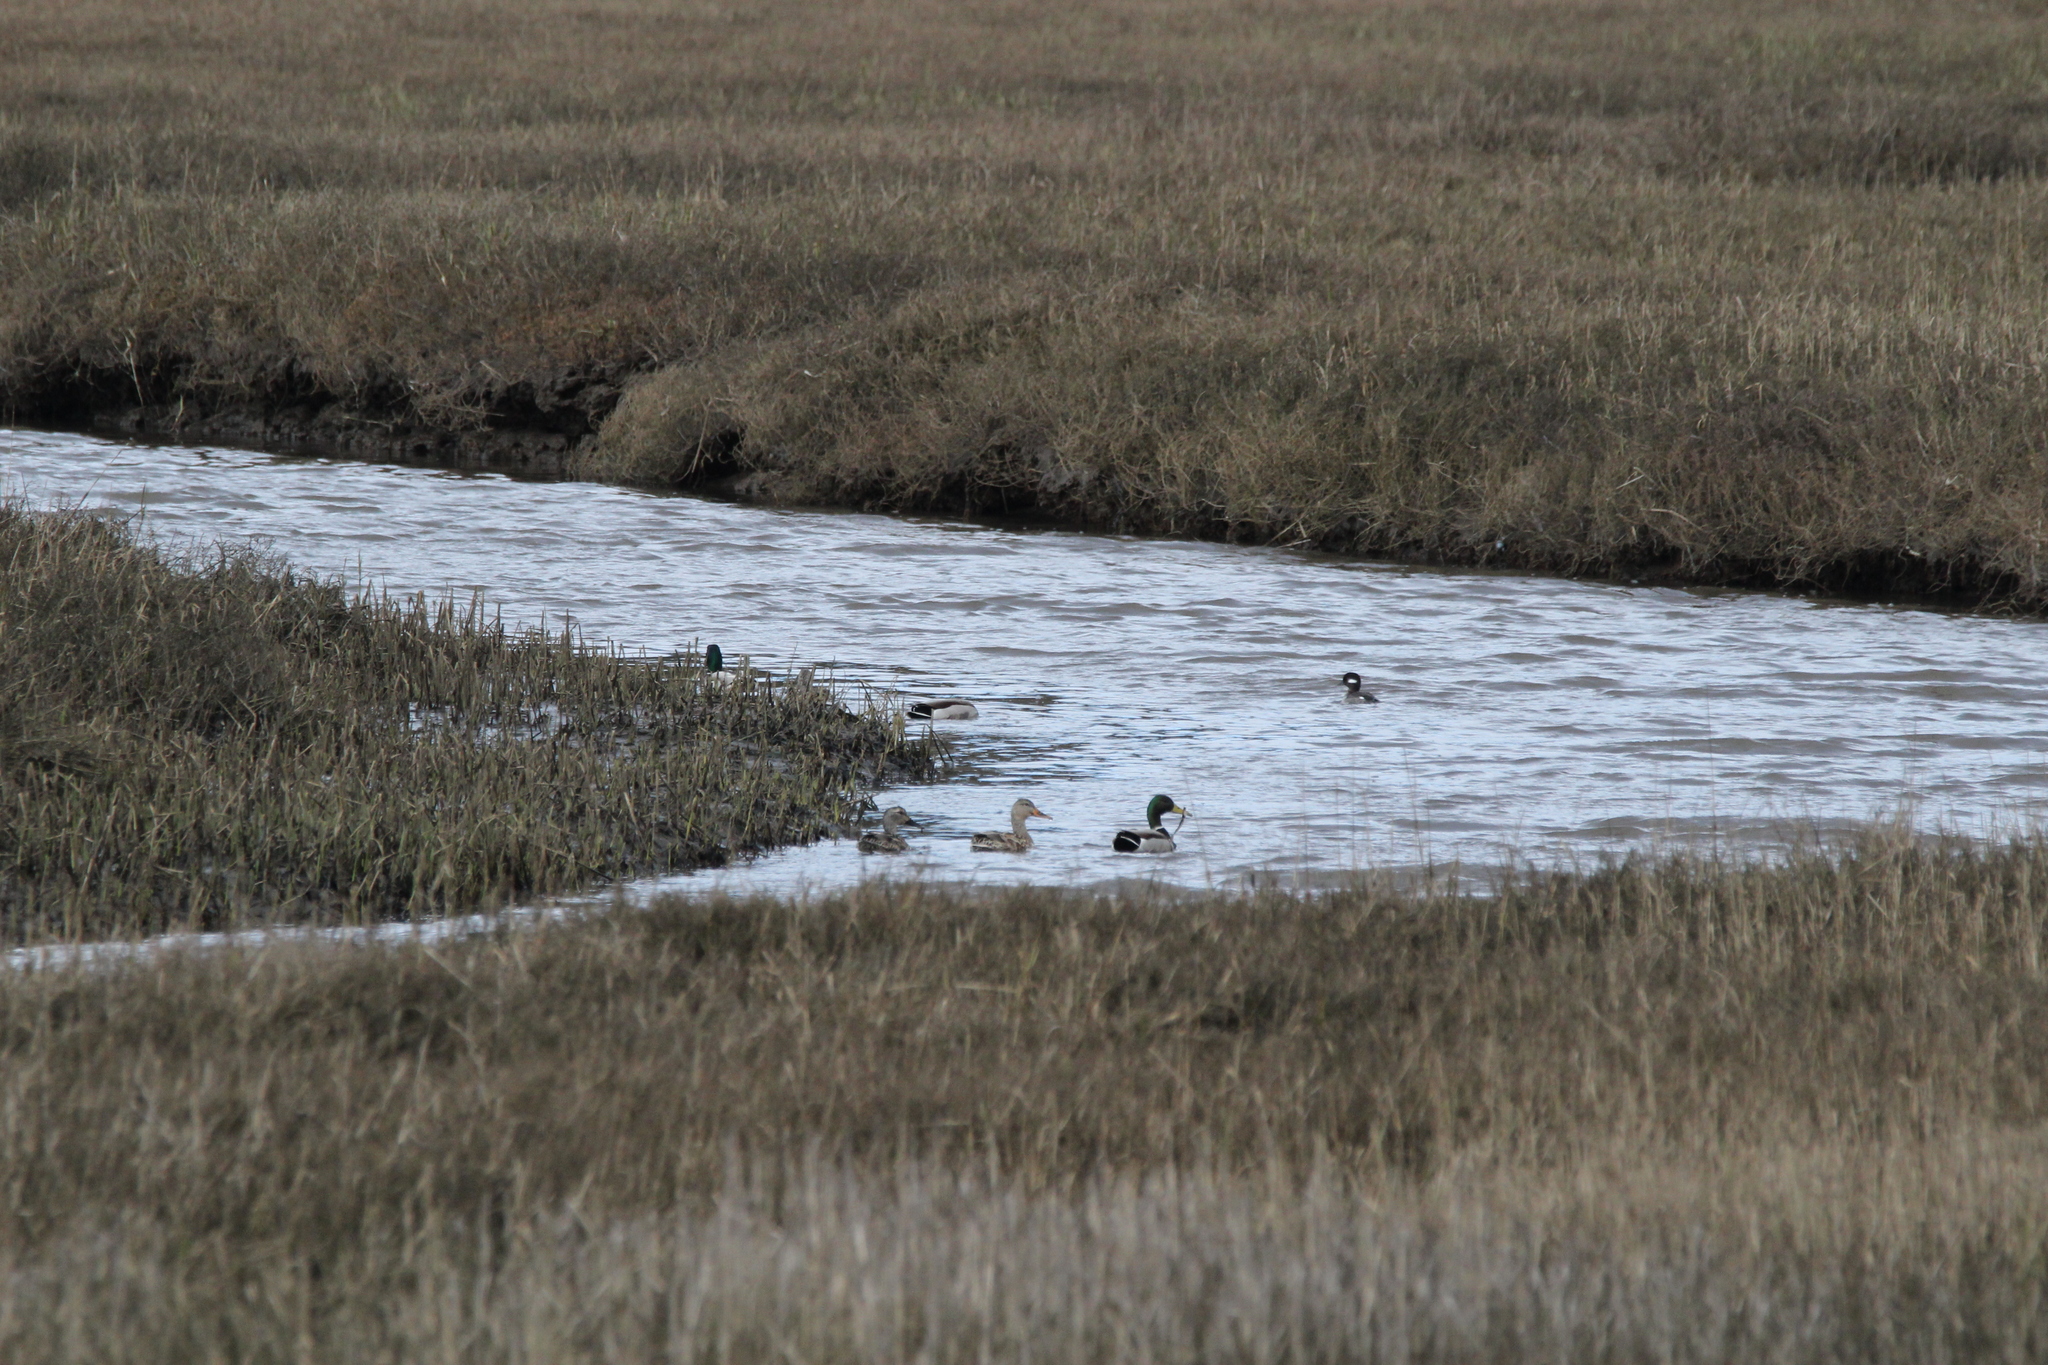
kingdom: Animalia
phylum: Chordata
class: Aves
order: Anseriformes
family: Anatidae
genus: Anas
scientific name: Anas platyrhynchos
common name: Mallard
